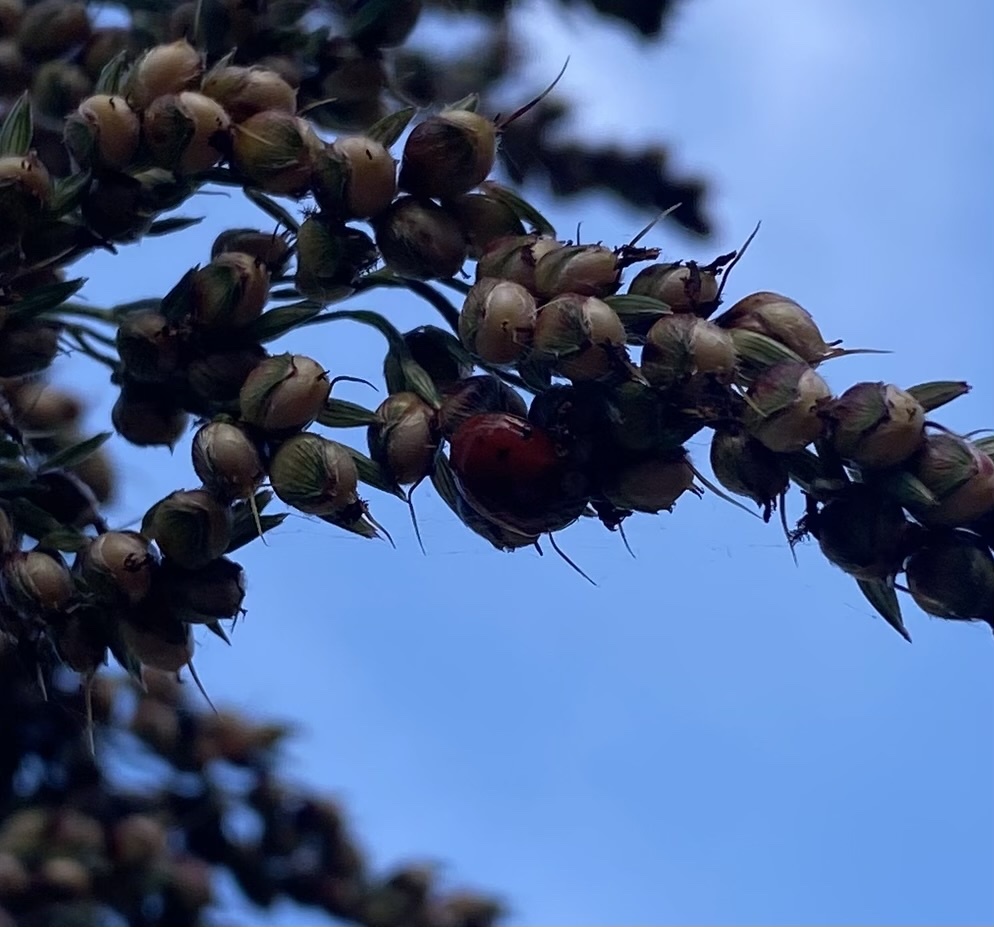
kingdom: Animalia
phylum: Arthropoda
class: Insecta
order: Coleoptera
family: Coccinellidae
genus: Harmonia
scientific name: Harmonia axyridis
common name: Harlequin ladybird
